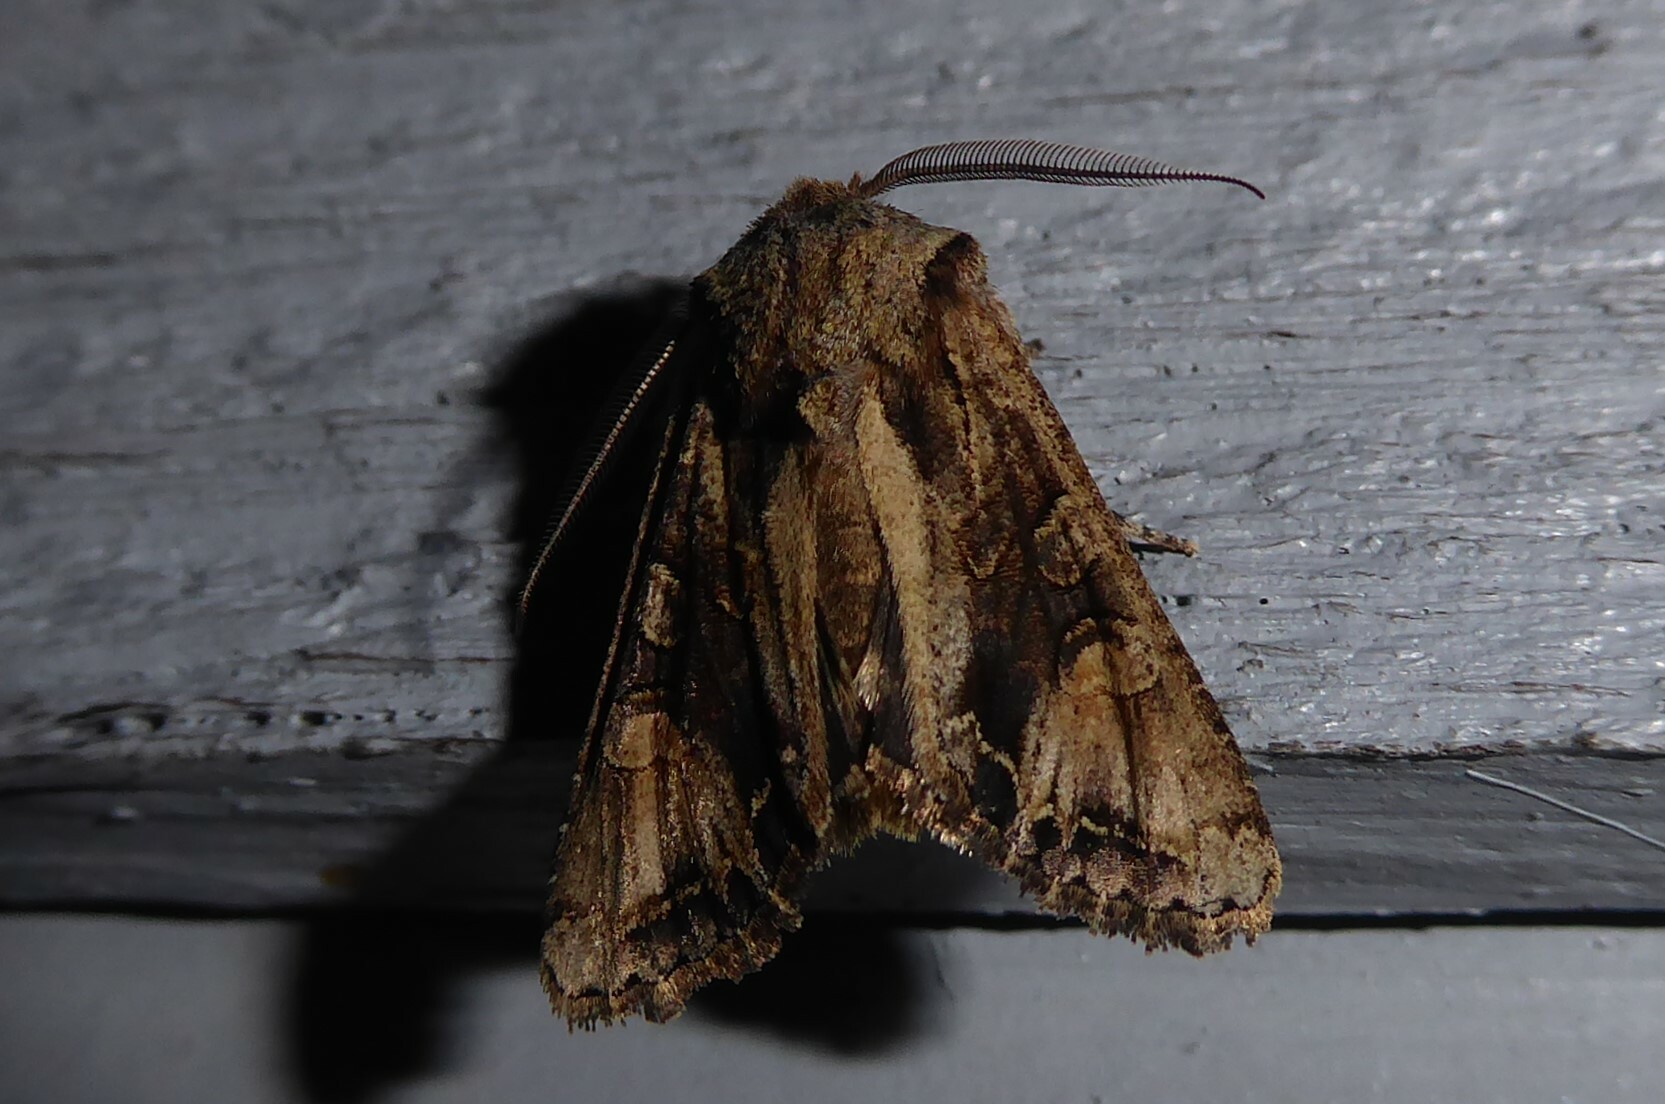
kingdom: Animalia
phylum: Arthropoda
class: Insecta
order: Lepidoptera
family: Noctuidae
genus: Ichneutica
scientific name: Ichneutica
